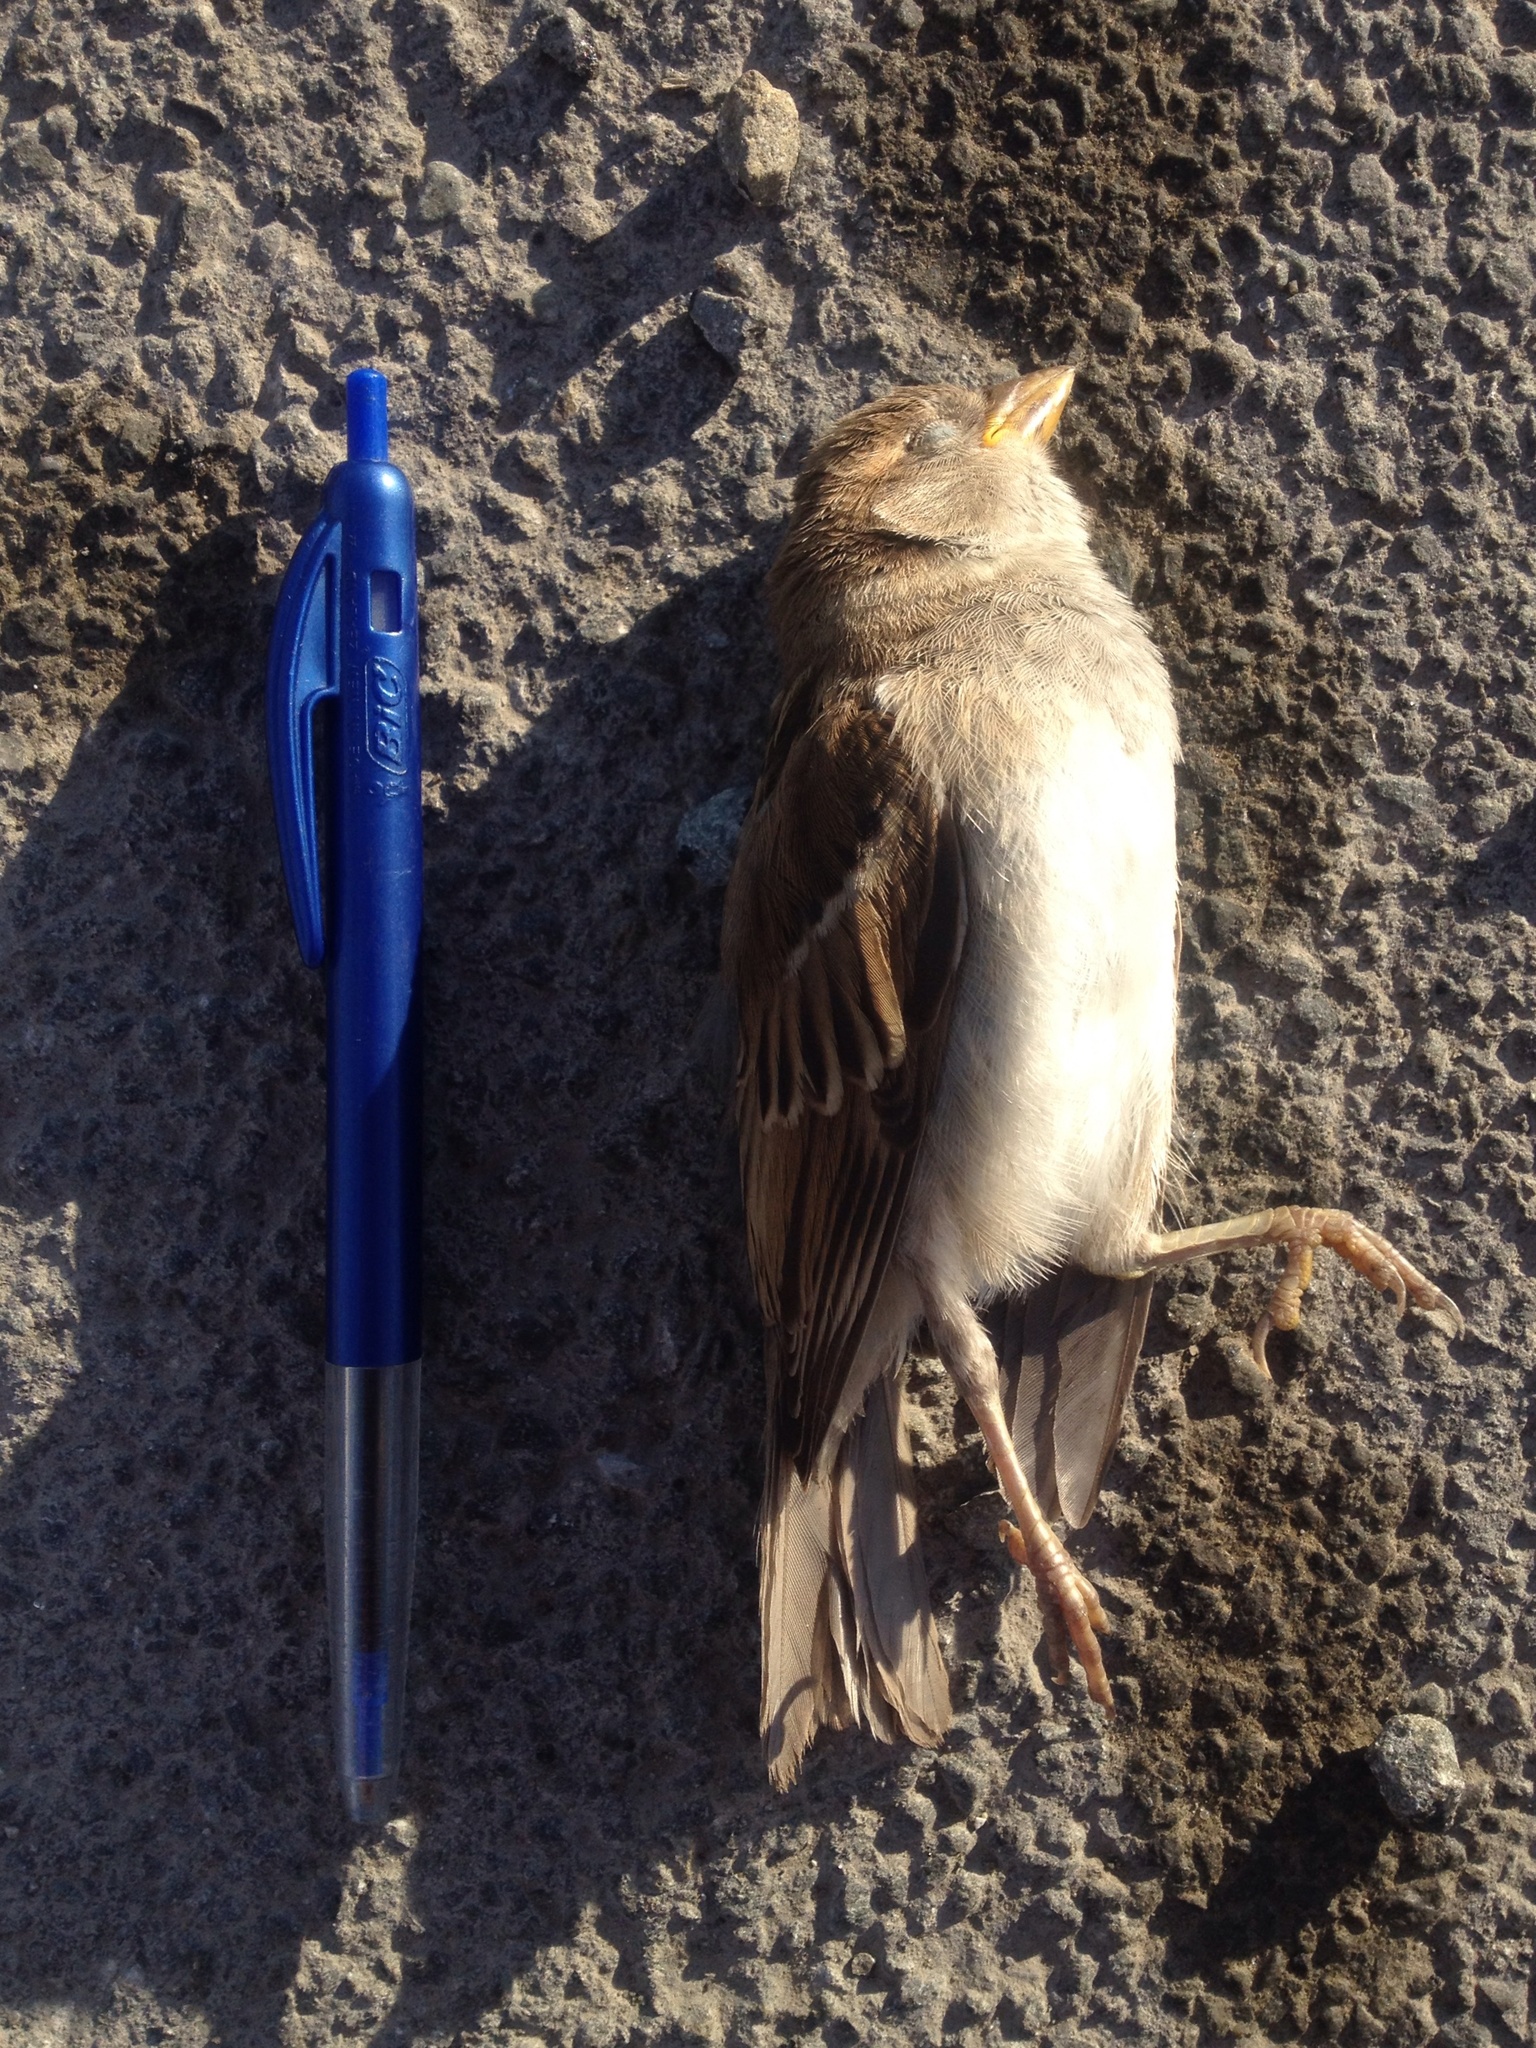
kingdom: Animalia
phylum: Chordata
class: Aves
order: Passeriformes
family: Passeridae
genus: Passer
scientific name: Passer domesticus
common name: House sparrow
